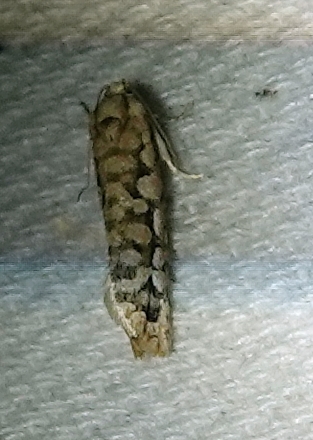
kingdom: Animalia
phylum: Arthropoda
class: Insecta
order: Lepidoptera
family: Tortricidae
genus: Diedra
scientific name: Diedra cockerellana
